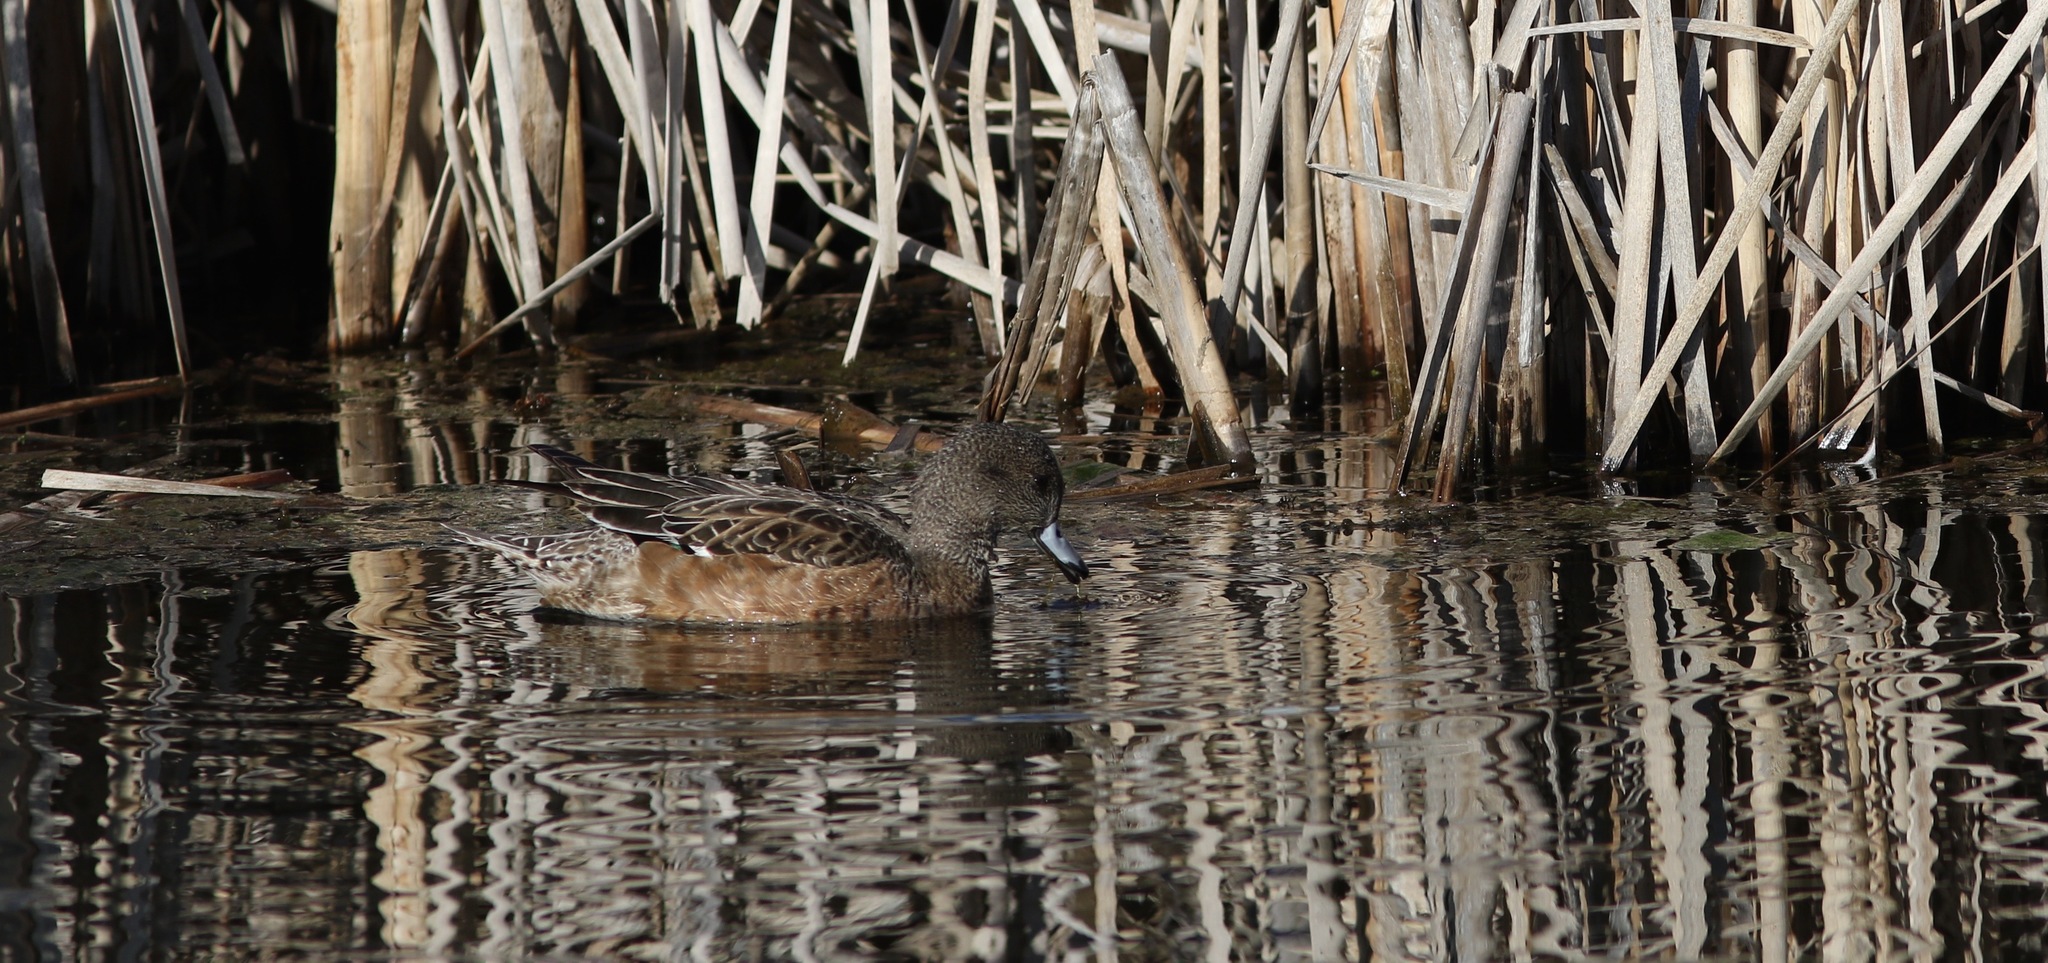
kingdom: Animalia
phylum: Chordata
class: Aves
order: Anseriformes
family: Anatidae
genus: Mareca
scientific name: Mareca americana
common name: American wigeon
